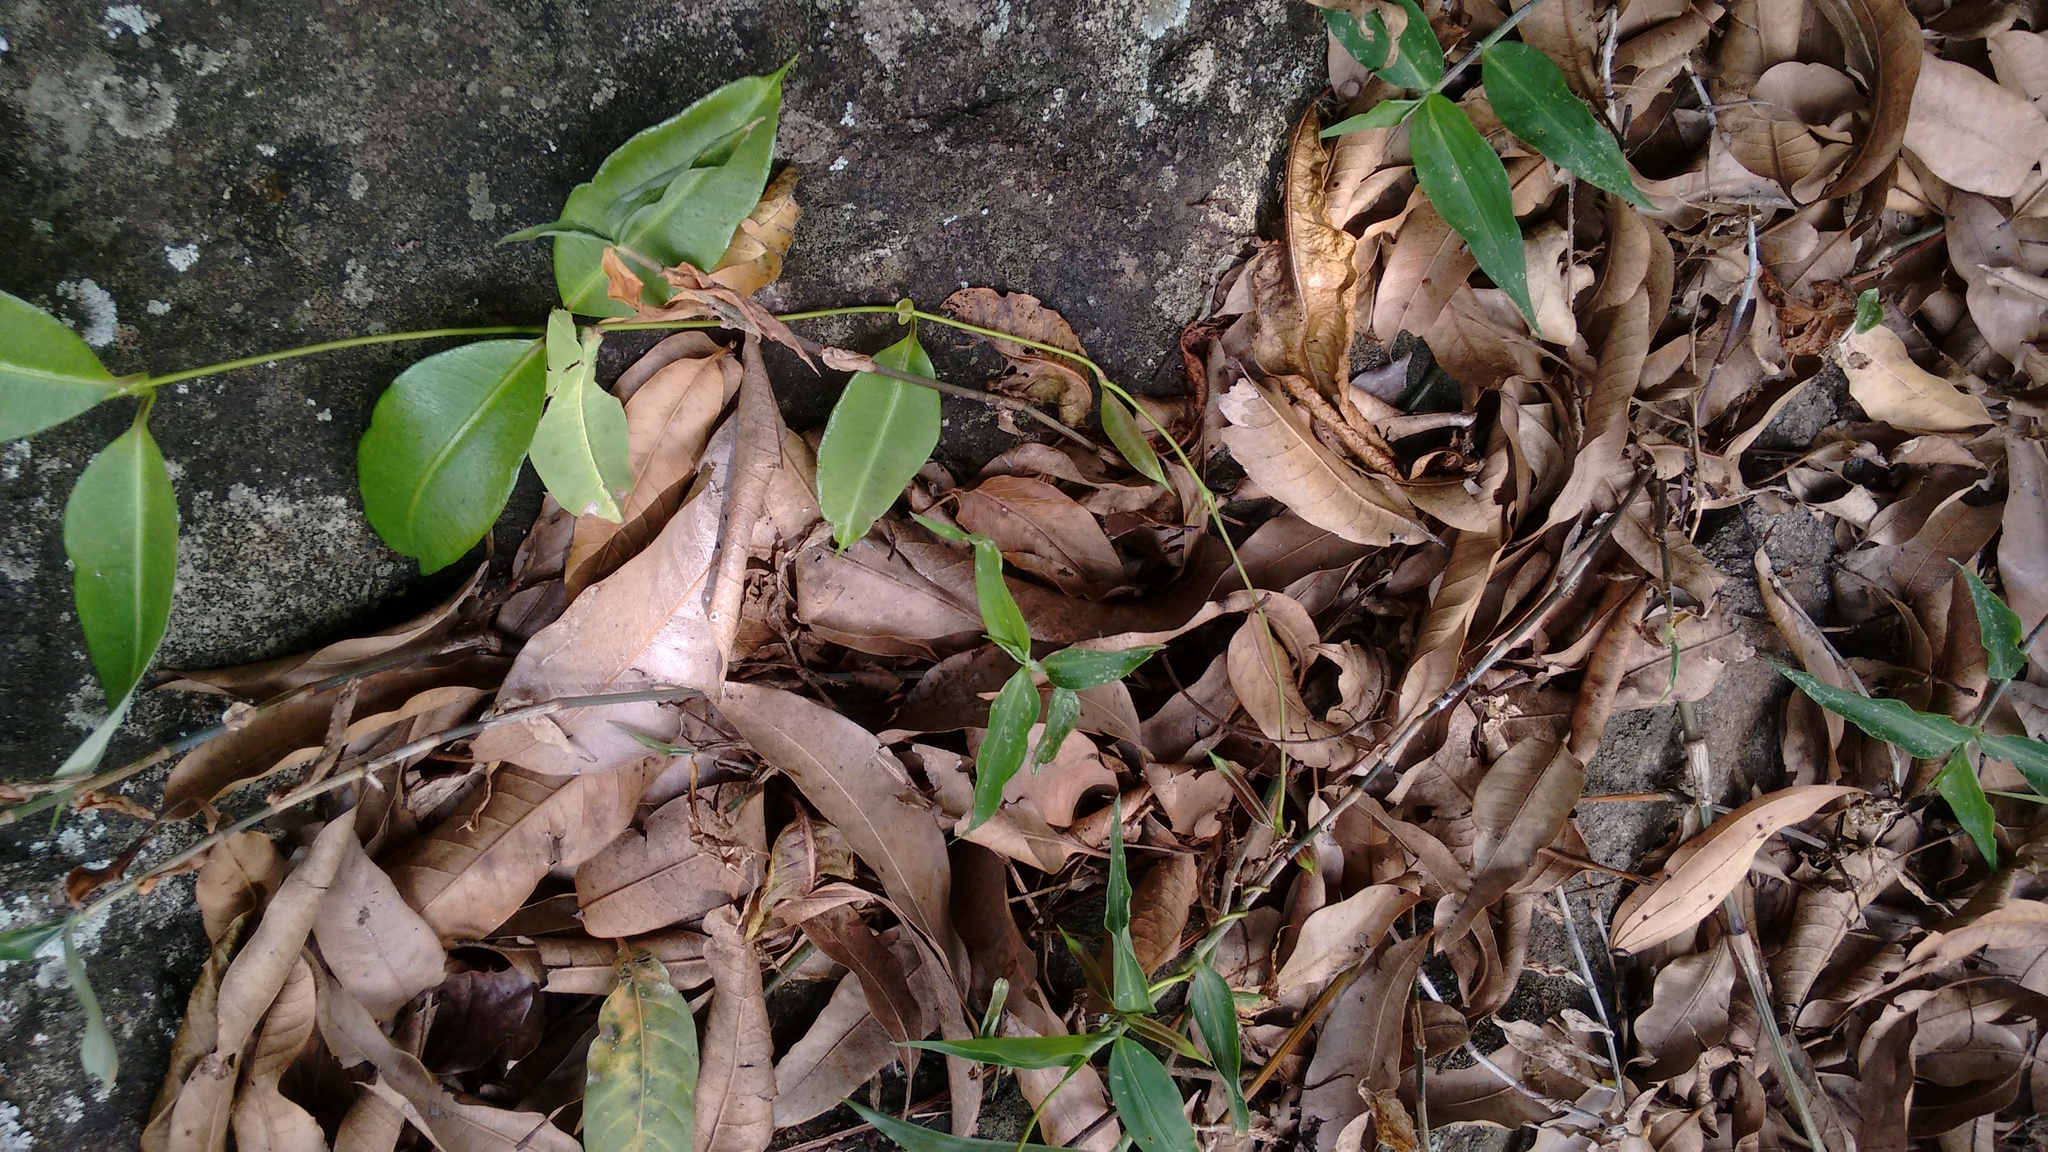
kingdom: Animalia
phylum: Arthropoda
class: Insecta
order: Phasmida
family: Phylliidae
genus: Pulchriphyllium
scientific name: Pulchriphyllium anangu
